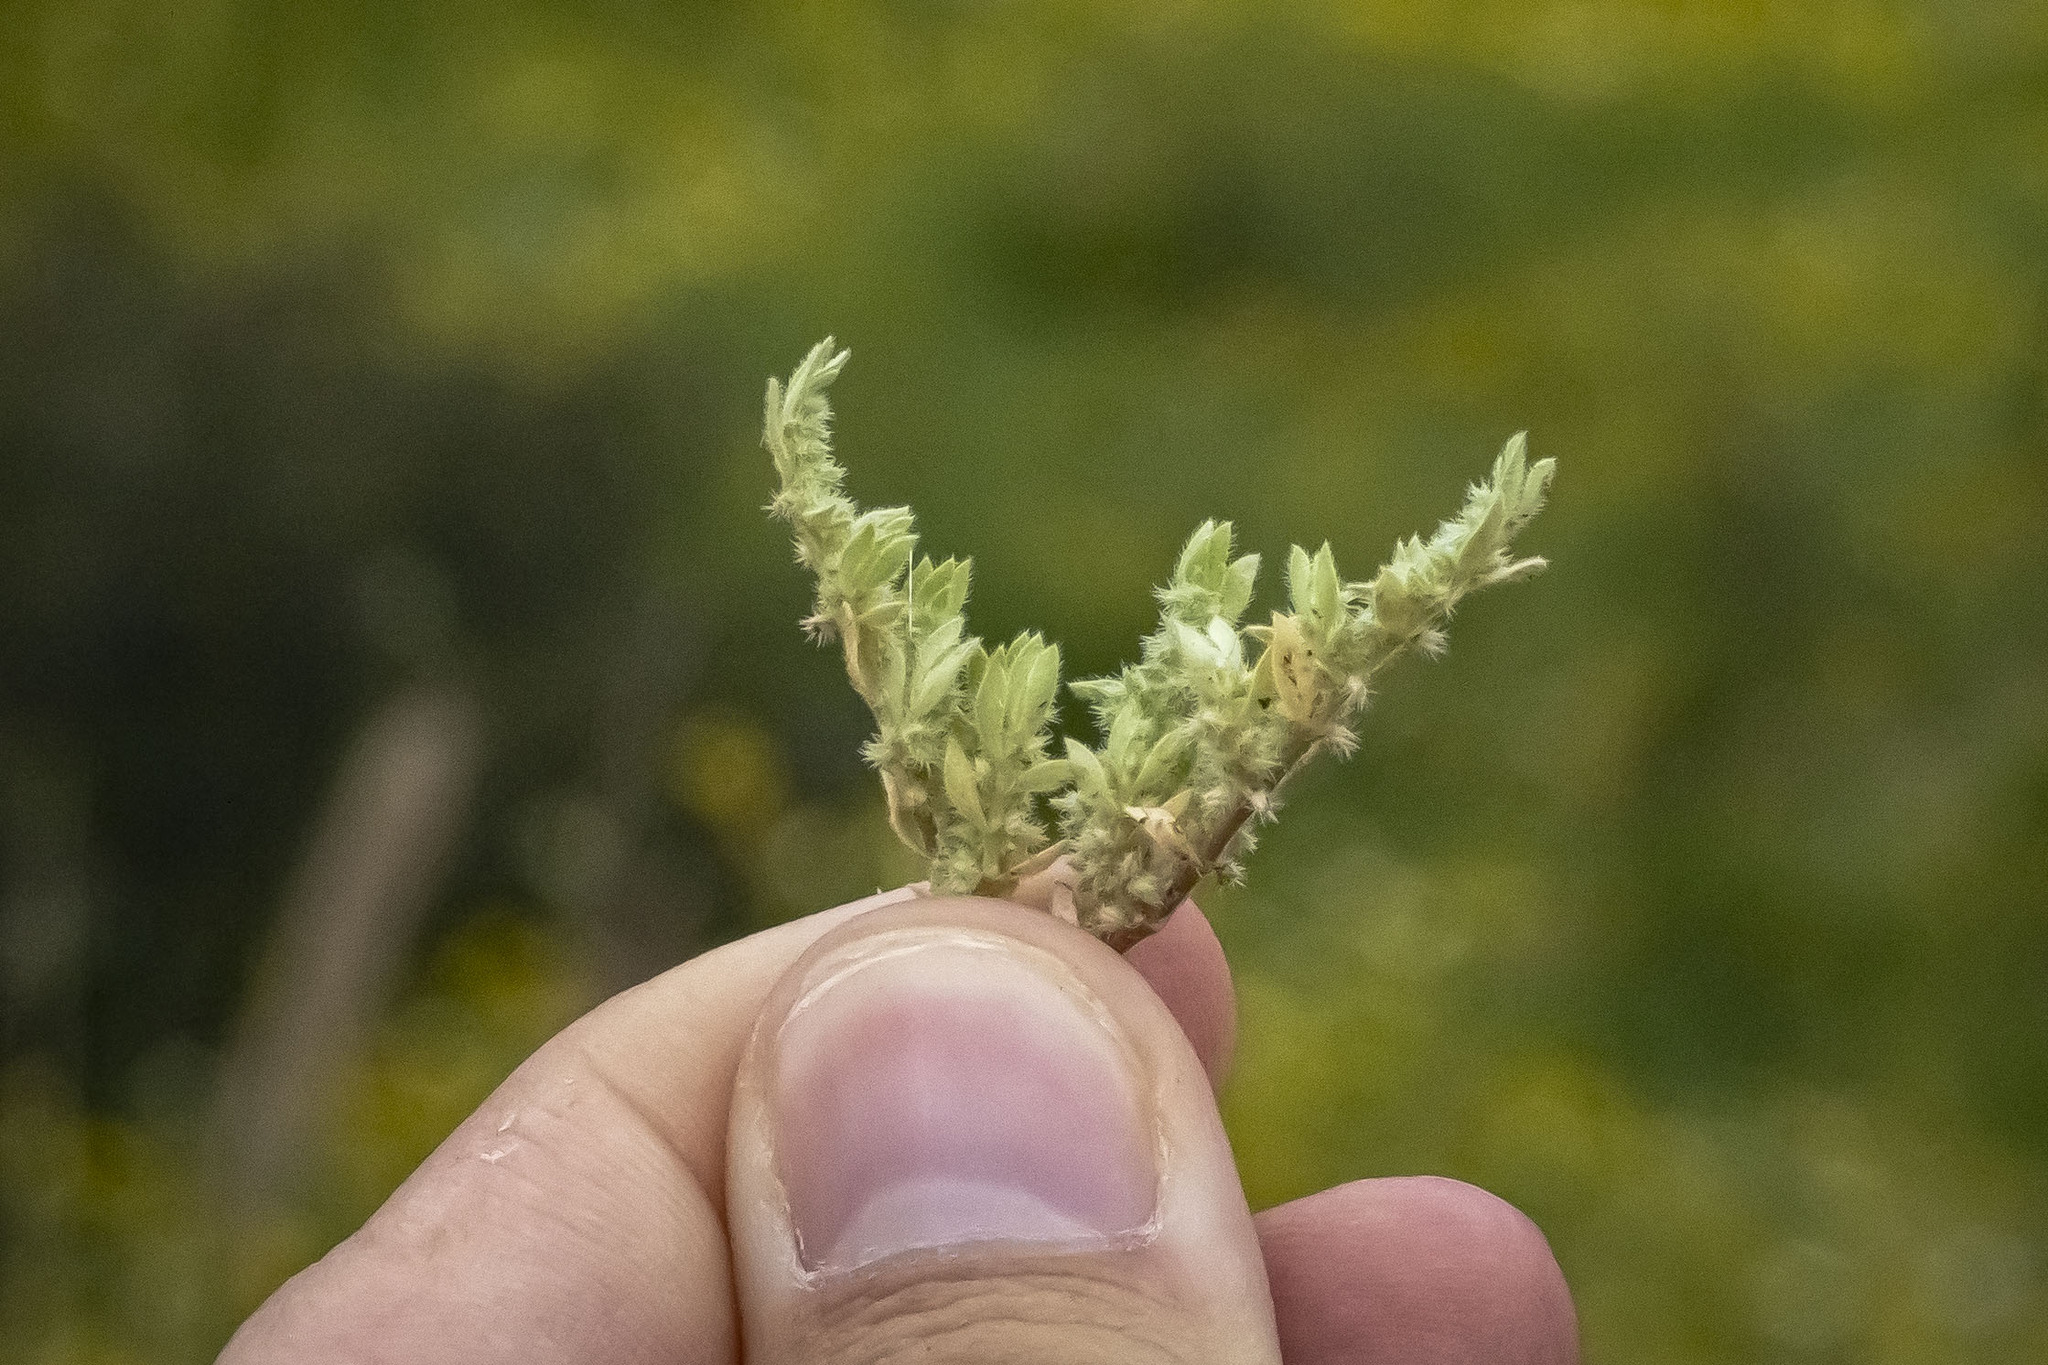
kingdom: Plantae
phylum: Tracheophyta
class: Magnoliopsida
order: Caryophyllales
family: Caryophyllaceae
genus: Herniaria
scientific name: Herniaria hirsuta
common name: Hairy rupturewort
